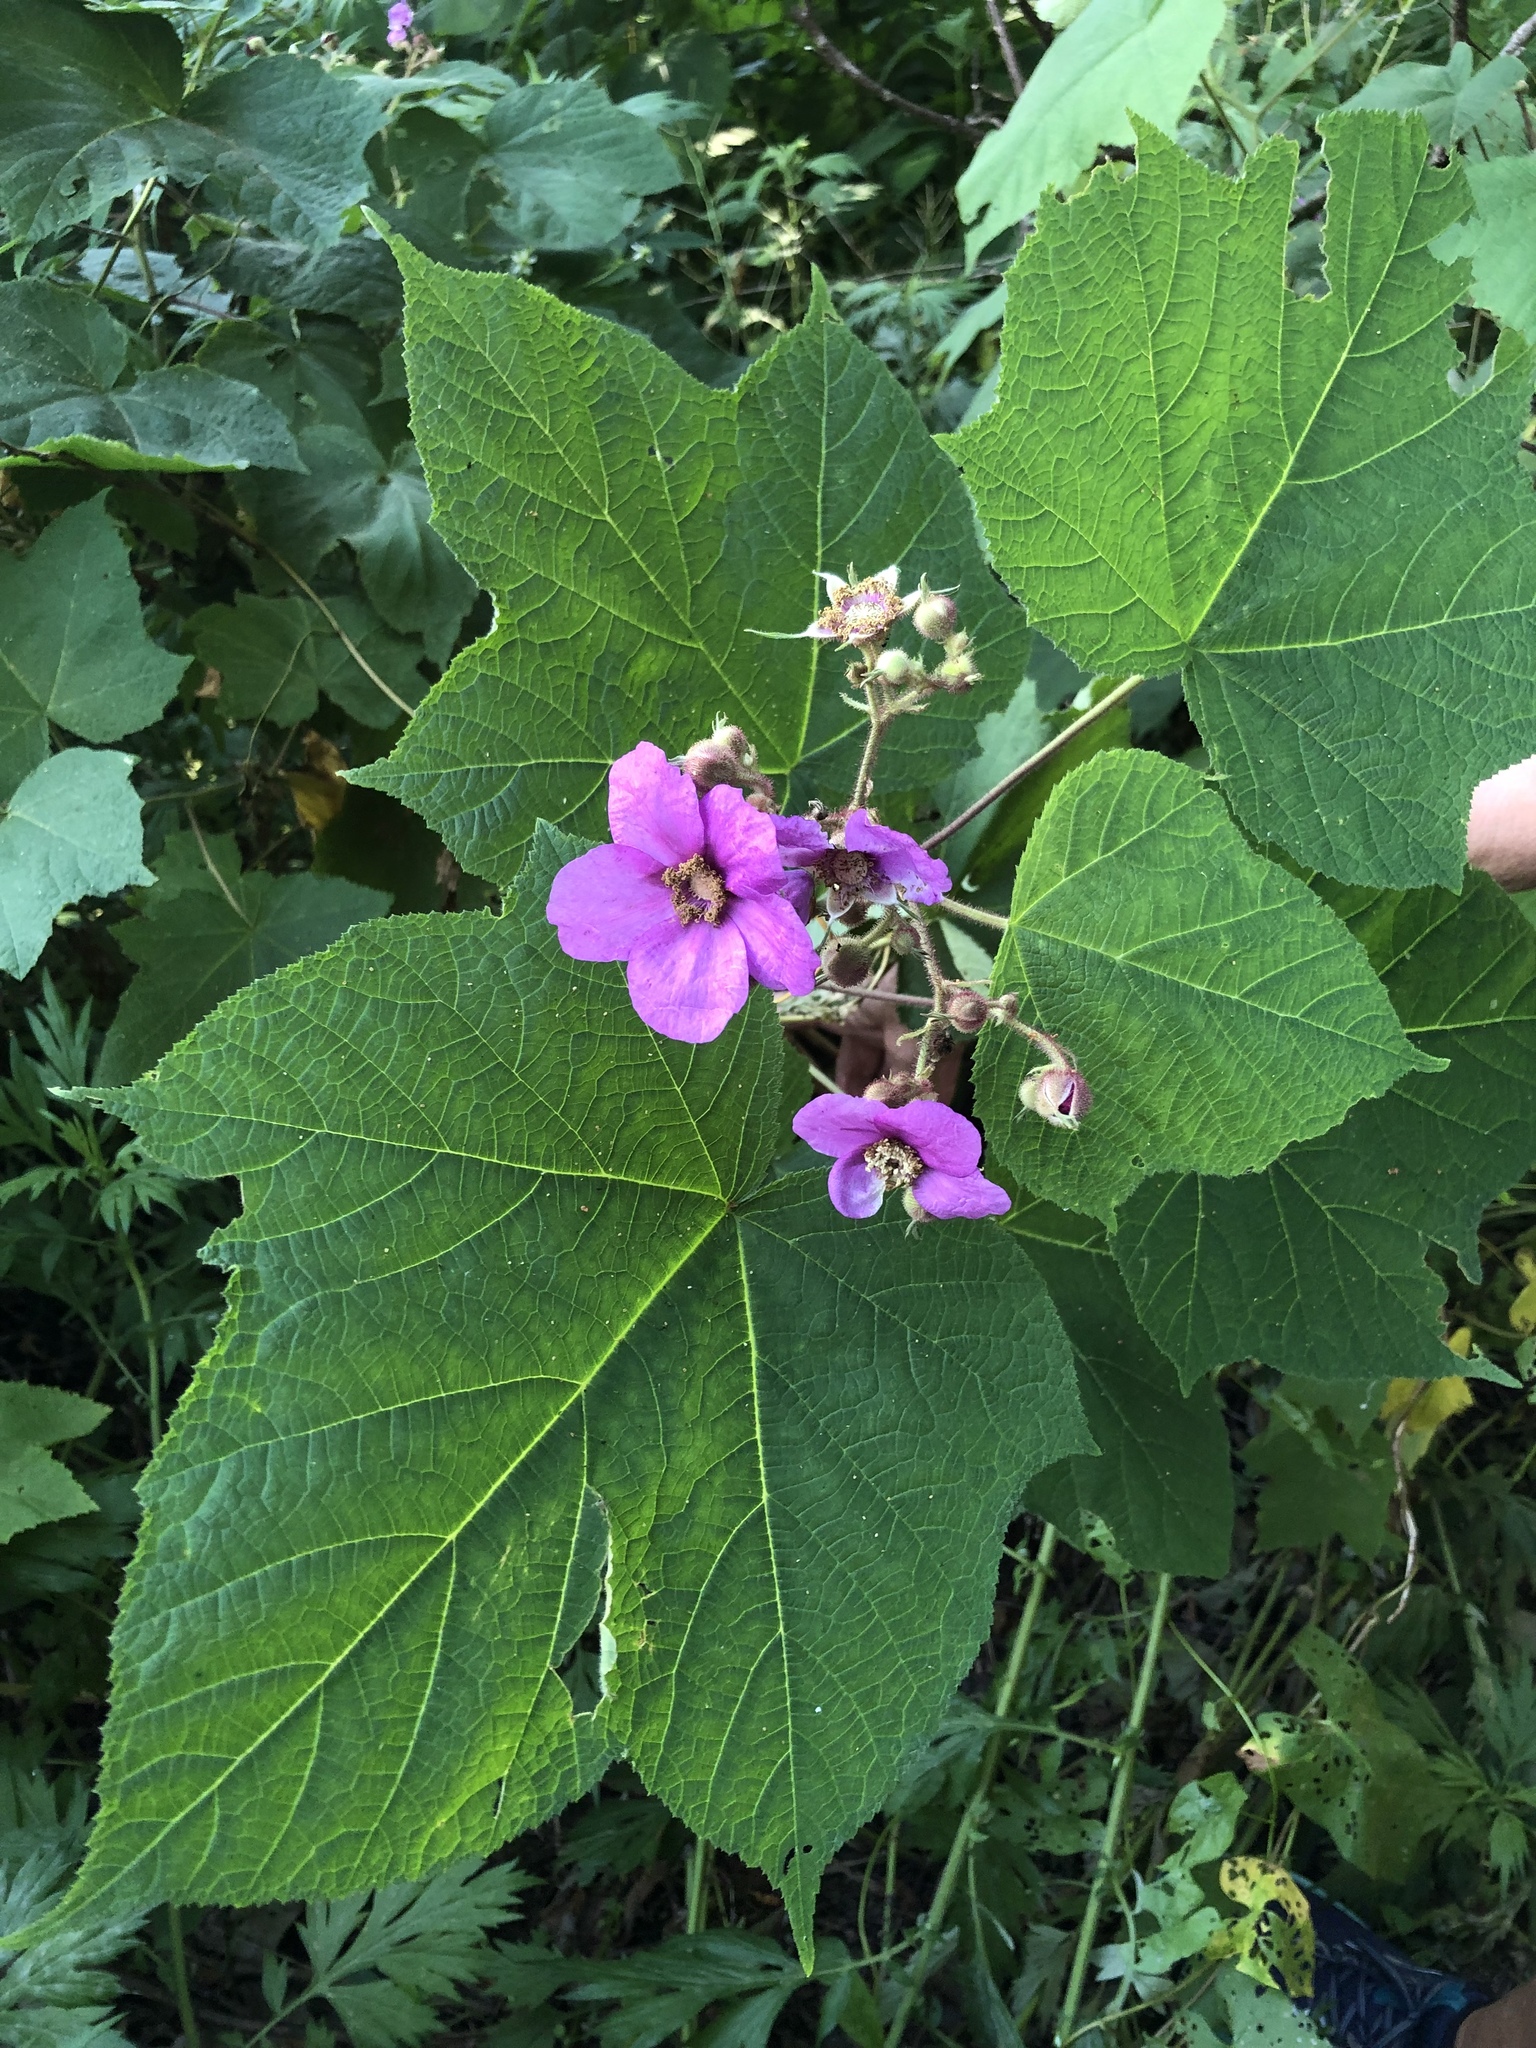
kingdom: Plantae
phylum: Tracheophyta
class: Magnoliopsida
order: Rosales
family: Rosaceae
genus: Rubus
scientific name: Rubus odoratus
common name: Purple-flowered raspberry
